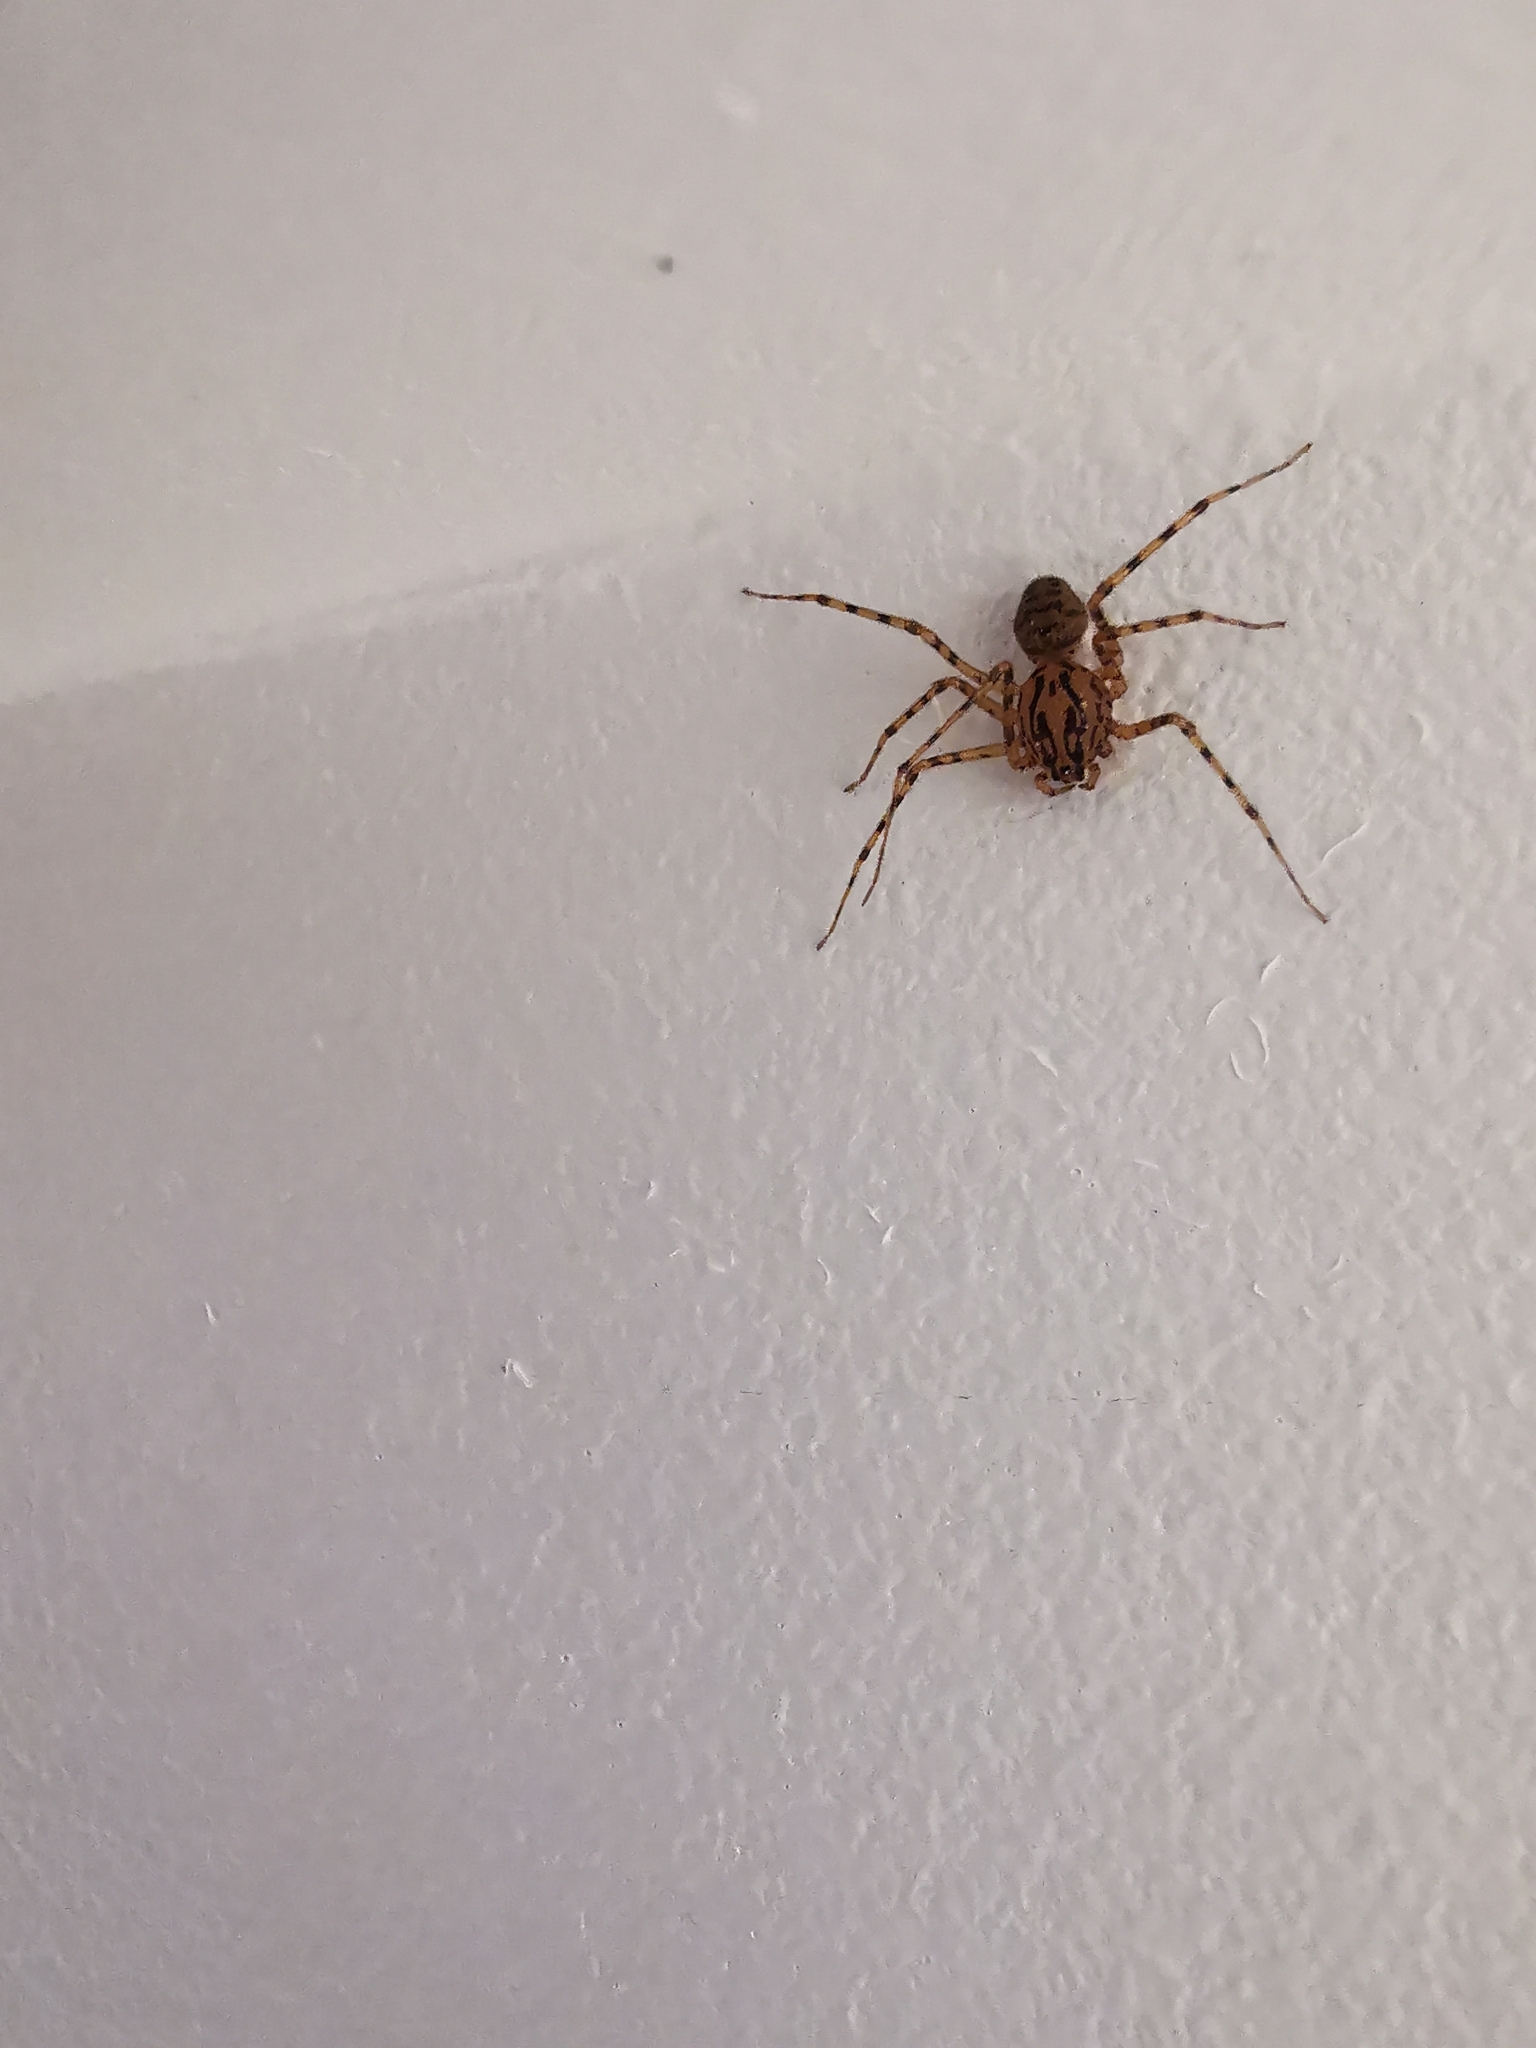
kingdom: Animalia
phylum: Arthropoda
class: Arachnida
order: Araneae
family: Scytodidae
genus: Scytodes
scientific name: Scytodes thoracica
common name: Spitting spider
